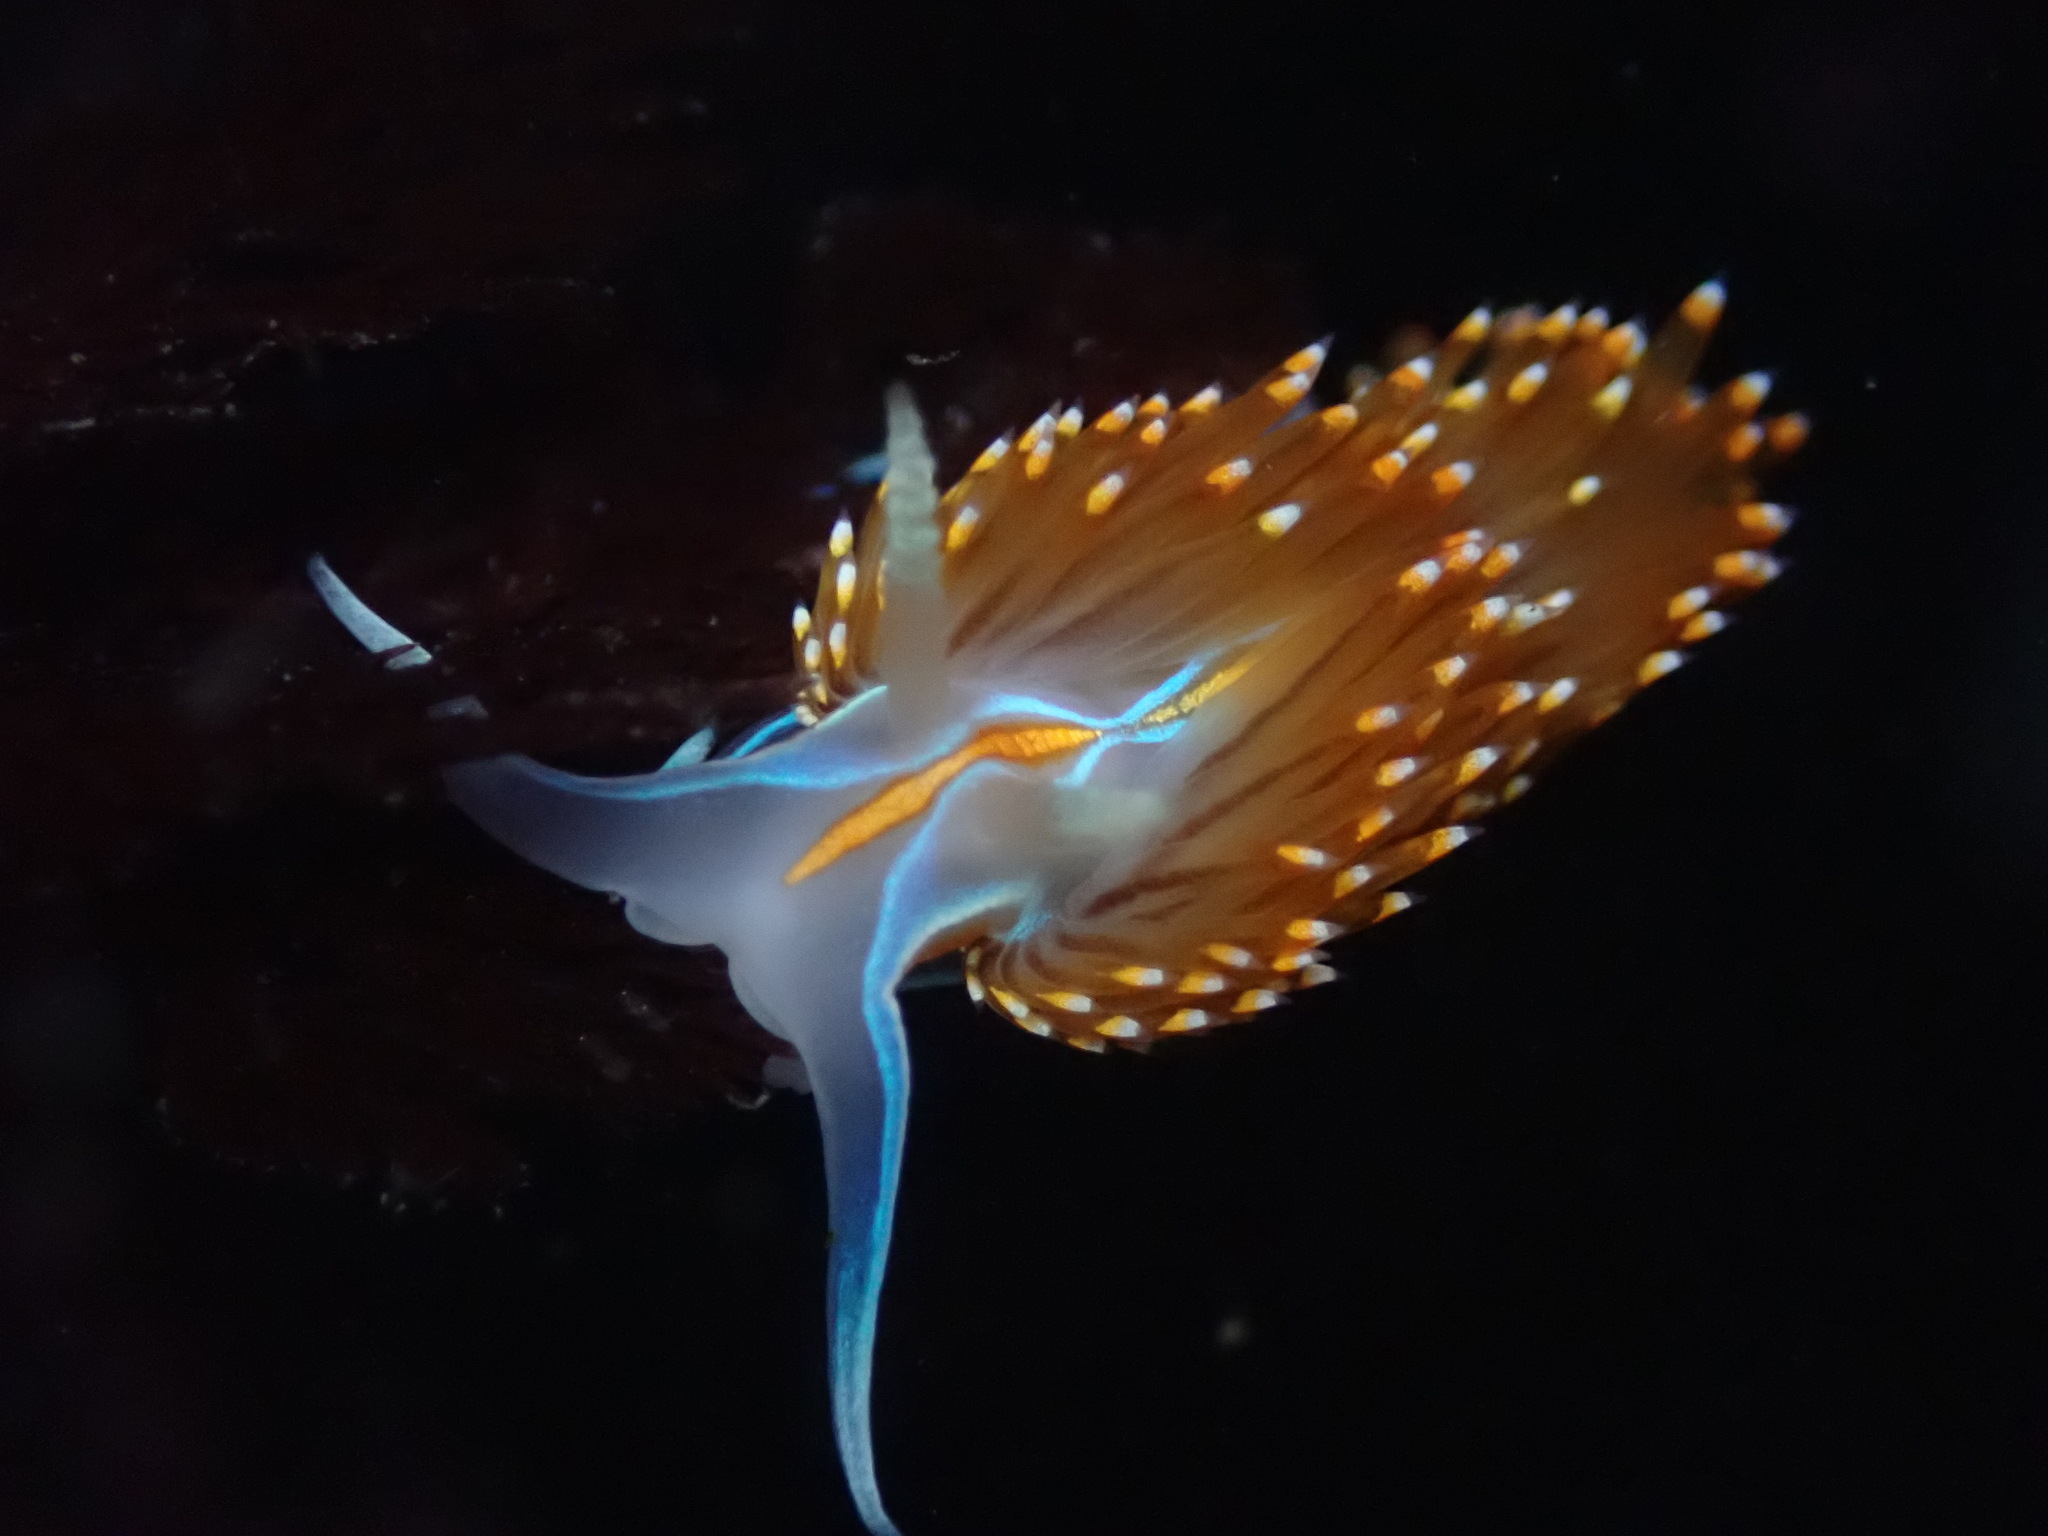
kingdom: Animalia
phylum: Mollusca
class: Gastropoda
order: Nudibranchia
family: Myrrhinidae
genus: Hermissenda
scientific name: Hermissenda opalescens
